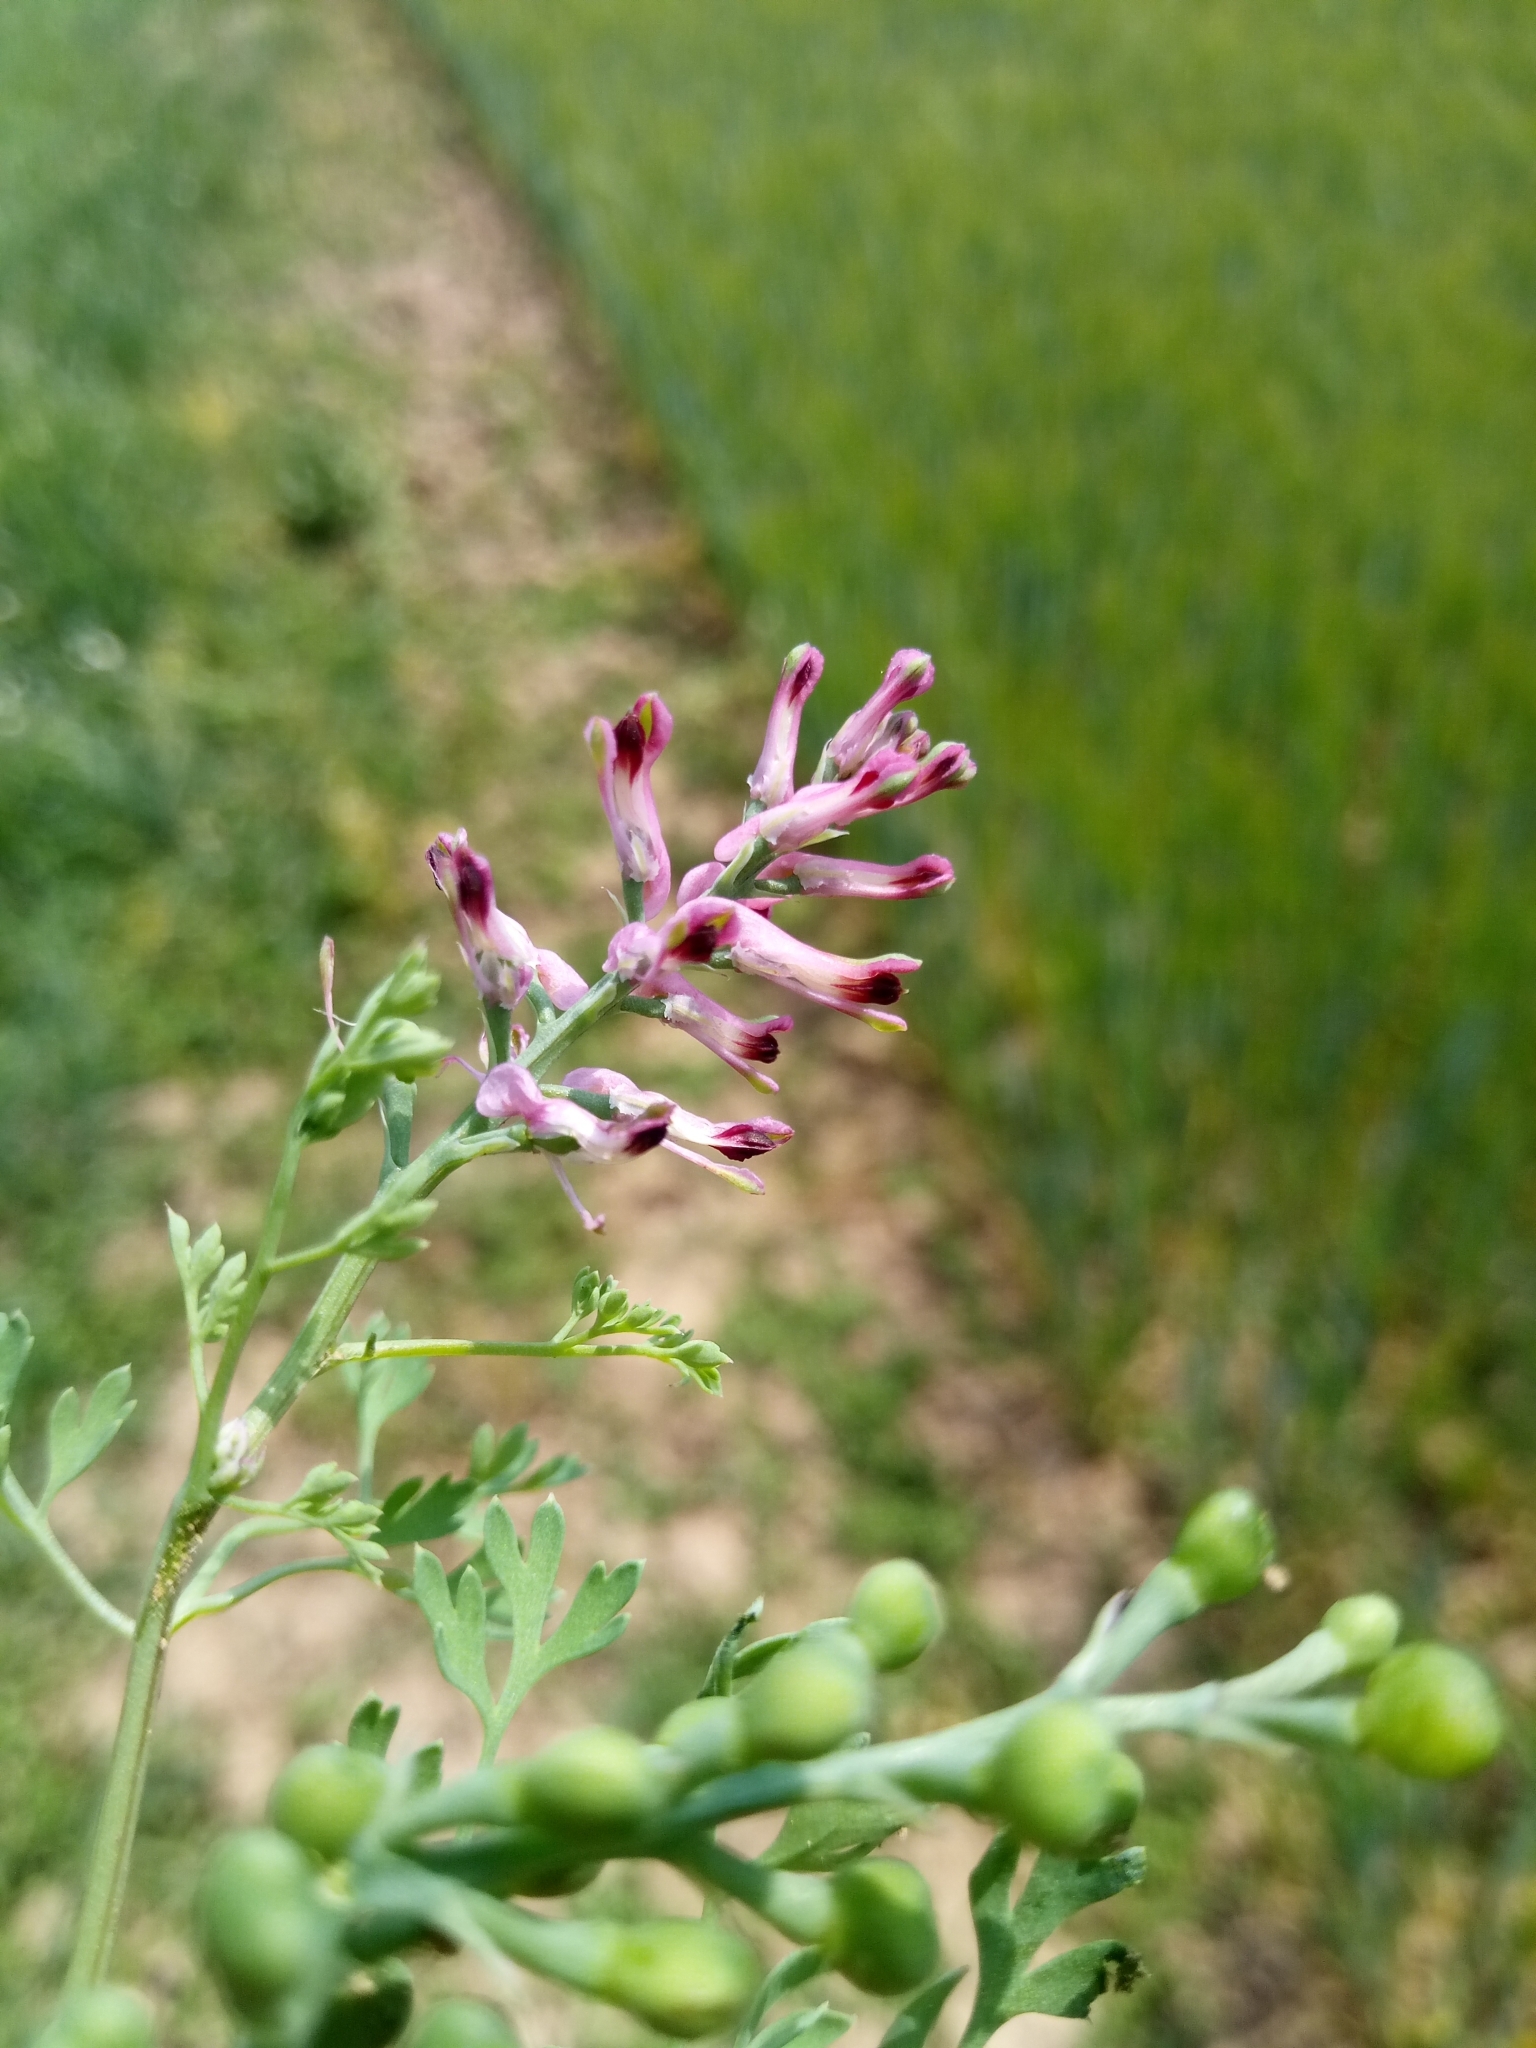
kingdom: Plantae
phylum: Tracheophyta
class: Magnoliopsida
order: Ranunculales
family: Papaveraceae
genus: Fumaria
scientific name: Fumaria officinalis
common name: Common fumitory
